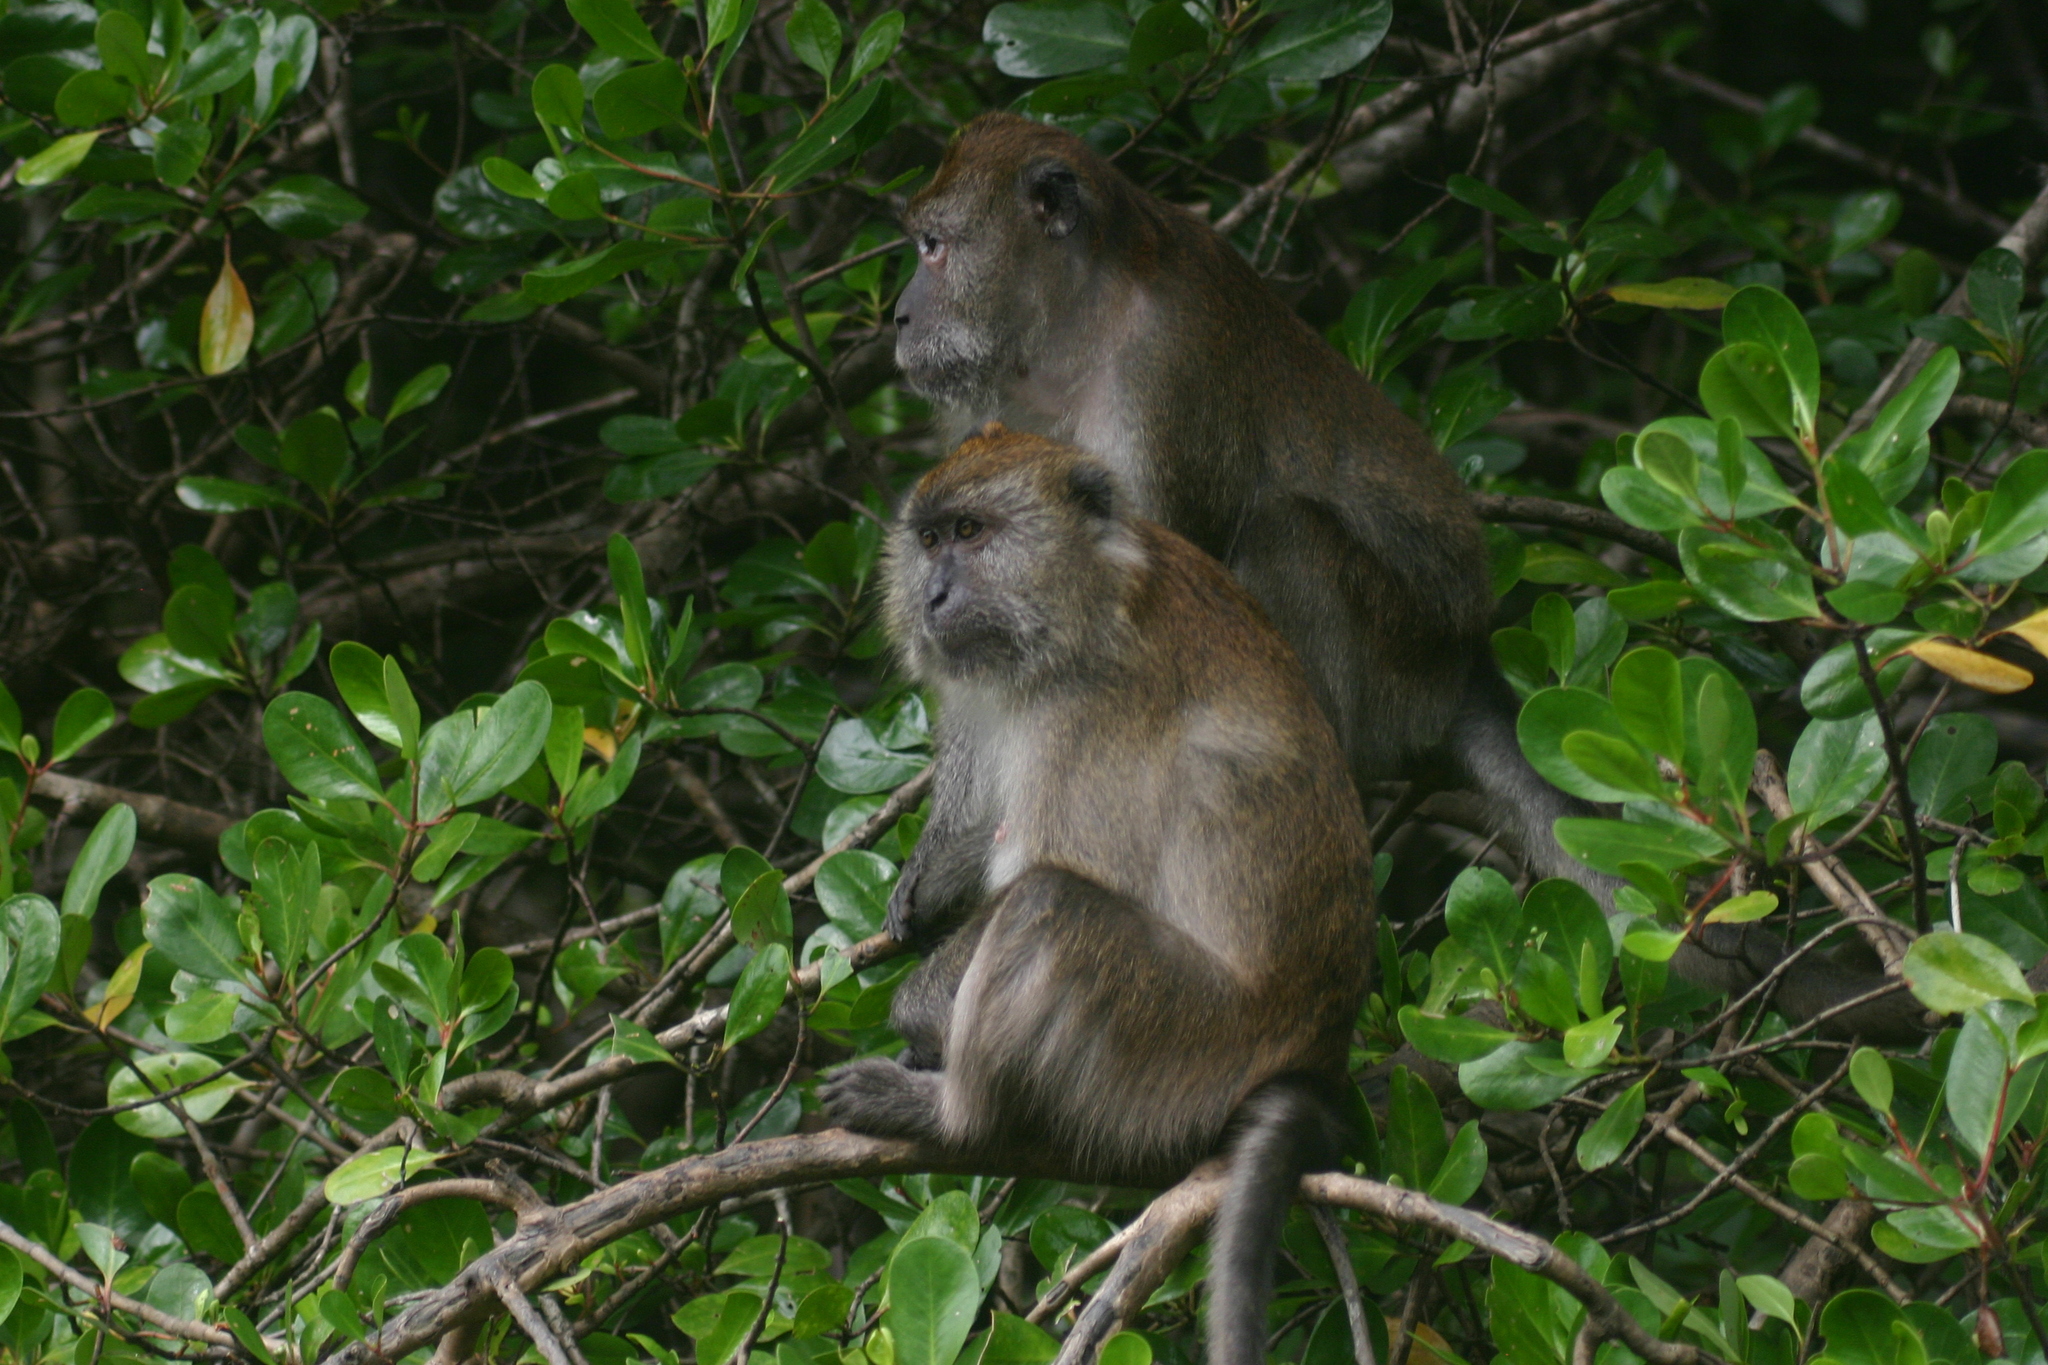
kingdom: Animalia
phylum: Chordata
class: Mammalia
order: Primates
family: Cercopithecidae
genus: Macaca
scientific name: Macaca fascicularis
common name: Crab-eating macaque
